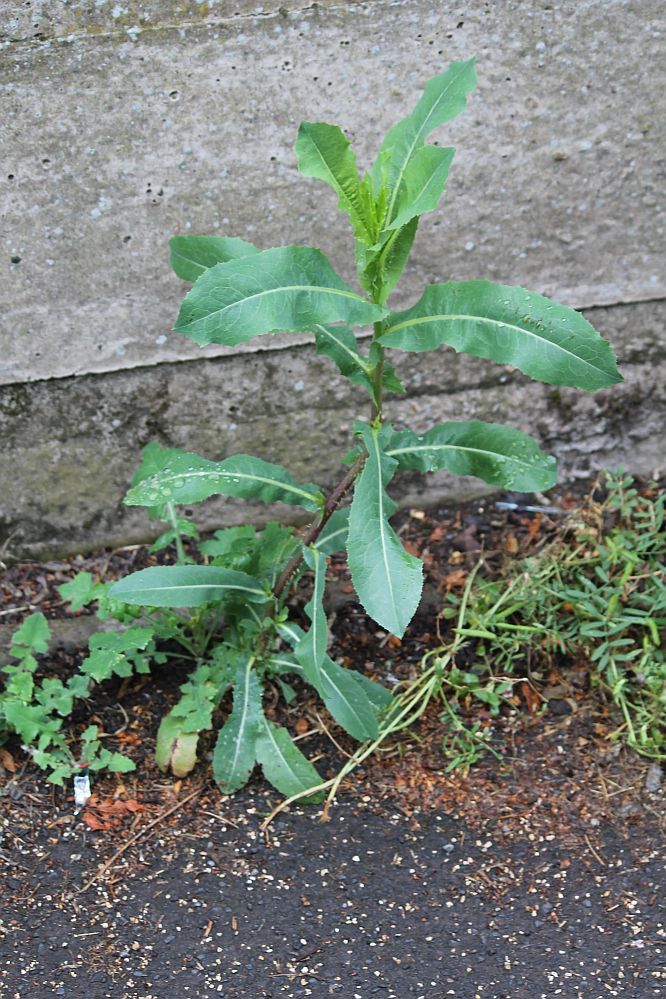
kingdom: Plantae
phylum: Tracheophyta
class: Magnoliopsida
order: Asterales
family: Asteraceae
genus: Lactuca
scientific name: Lactuca serriola
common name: Prickly lettuce
